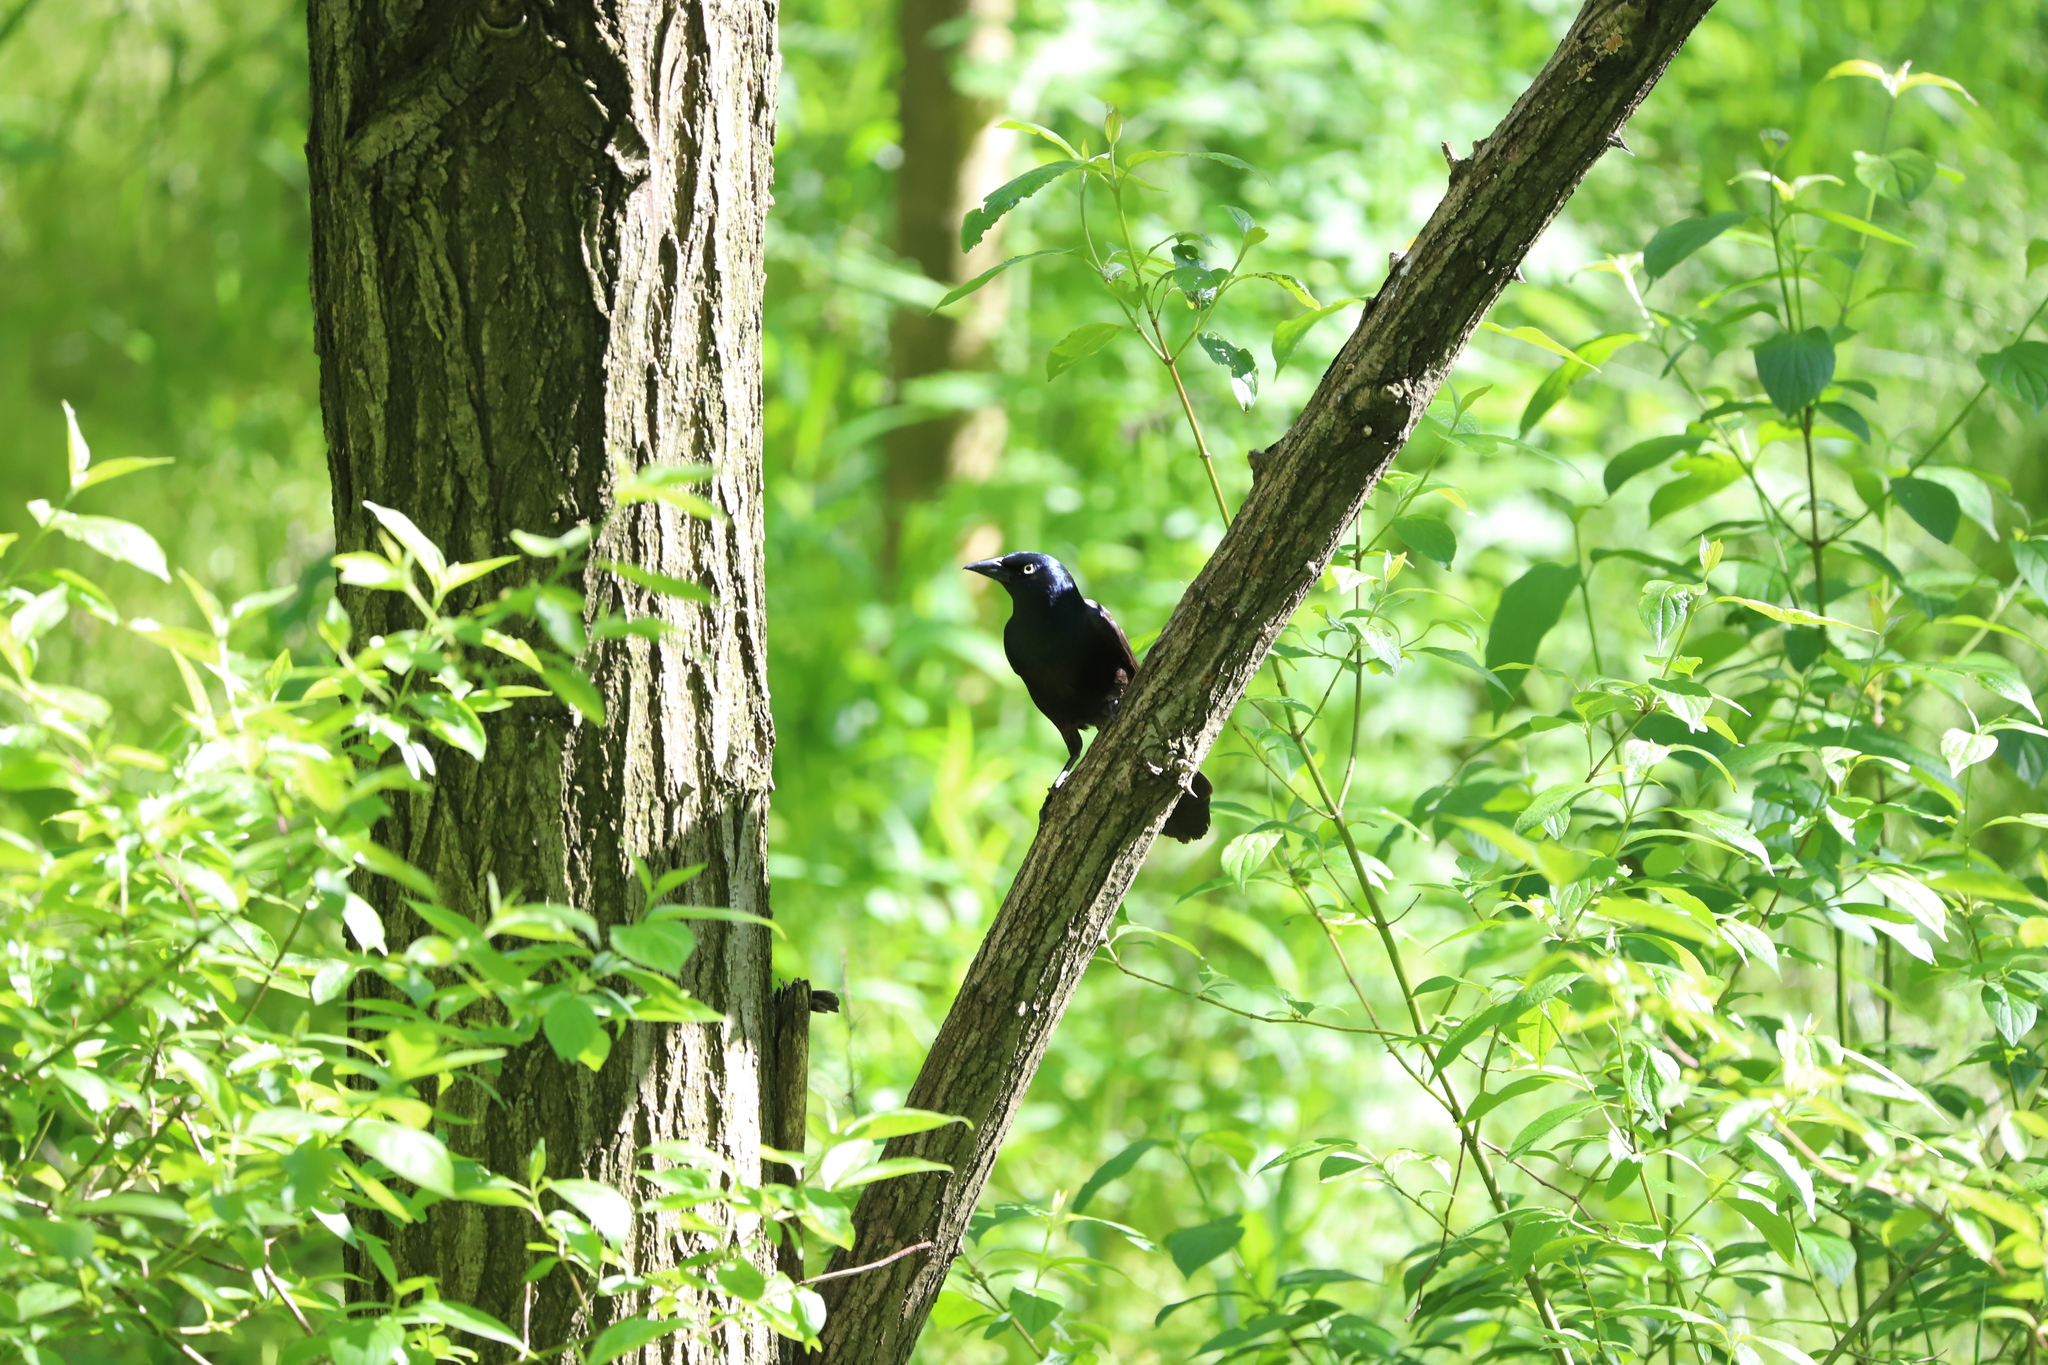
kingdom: Animalia
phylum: Chordata
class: Aves
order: Passeriformes
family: Icteridae
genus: Quiscalus
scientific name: Quiscalus quiscula
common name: Common grackle
